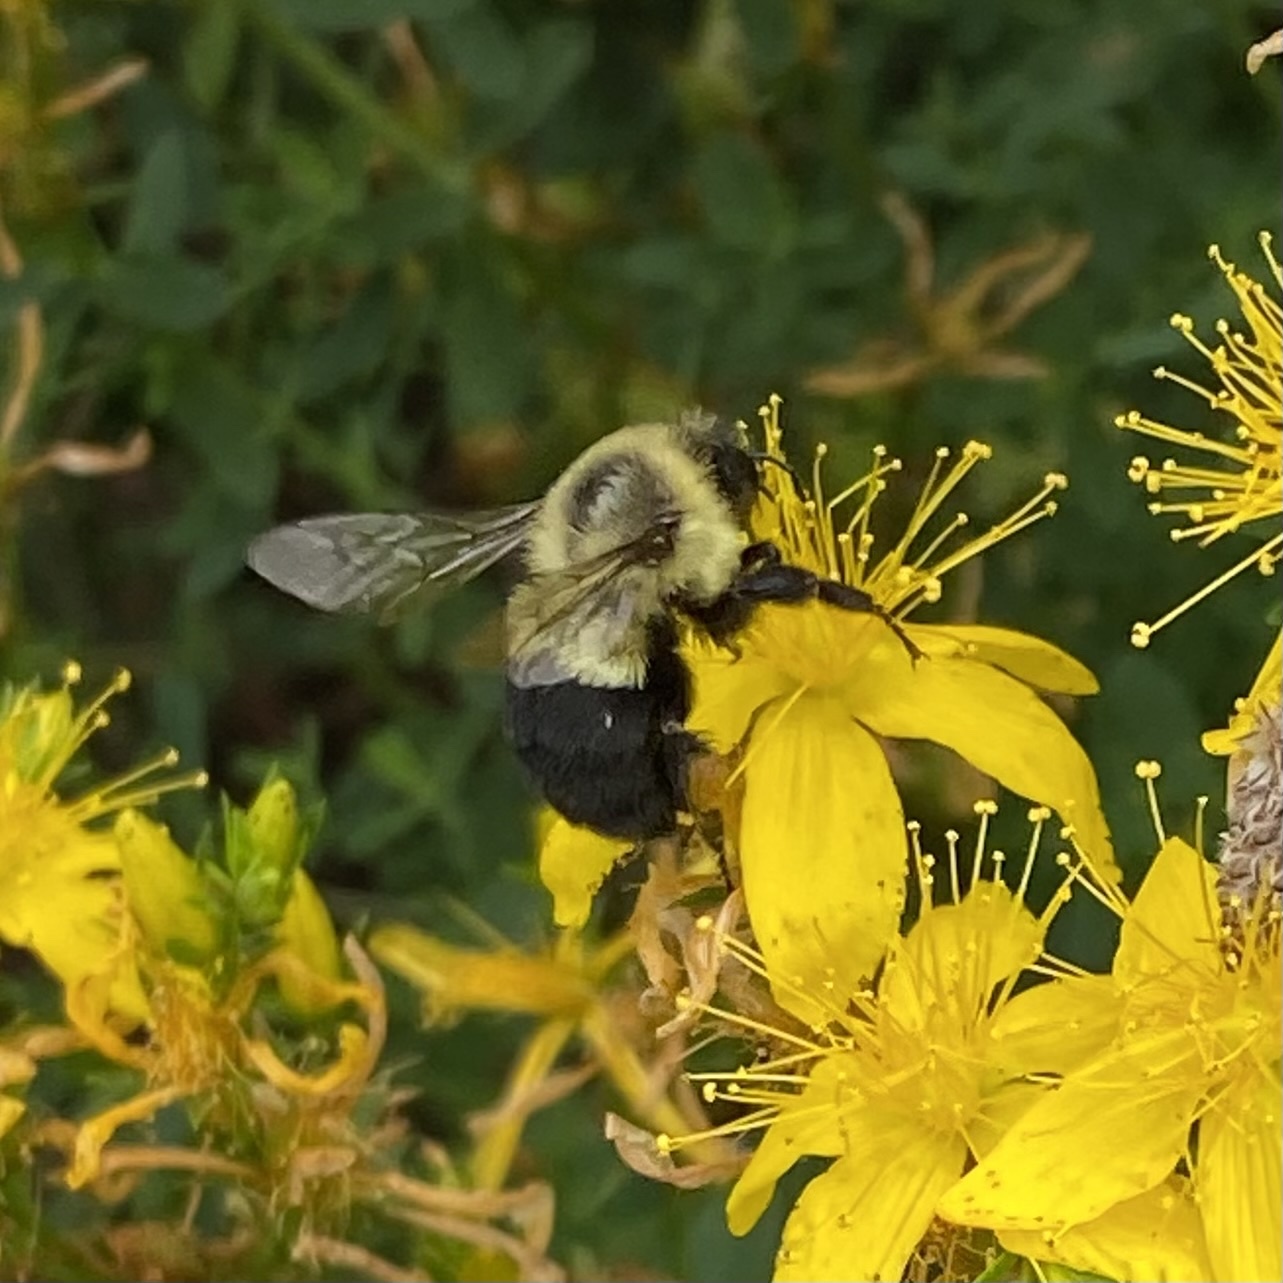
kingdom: Animalia
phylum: Arthropoda
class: Insecta
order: Hymenoptera
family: Apidae
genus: Bombus
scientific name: Bombus impatiens
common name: Common eastern bumble bee
